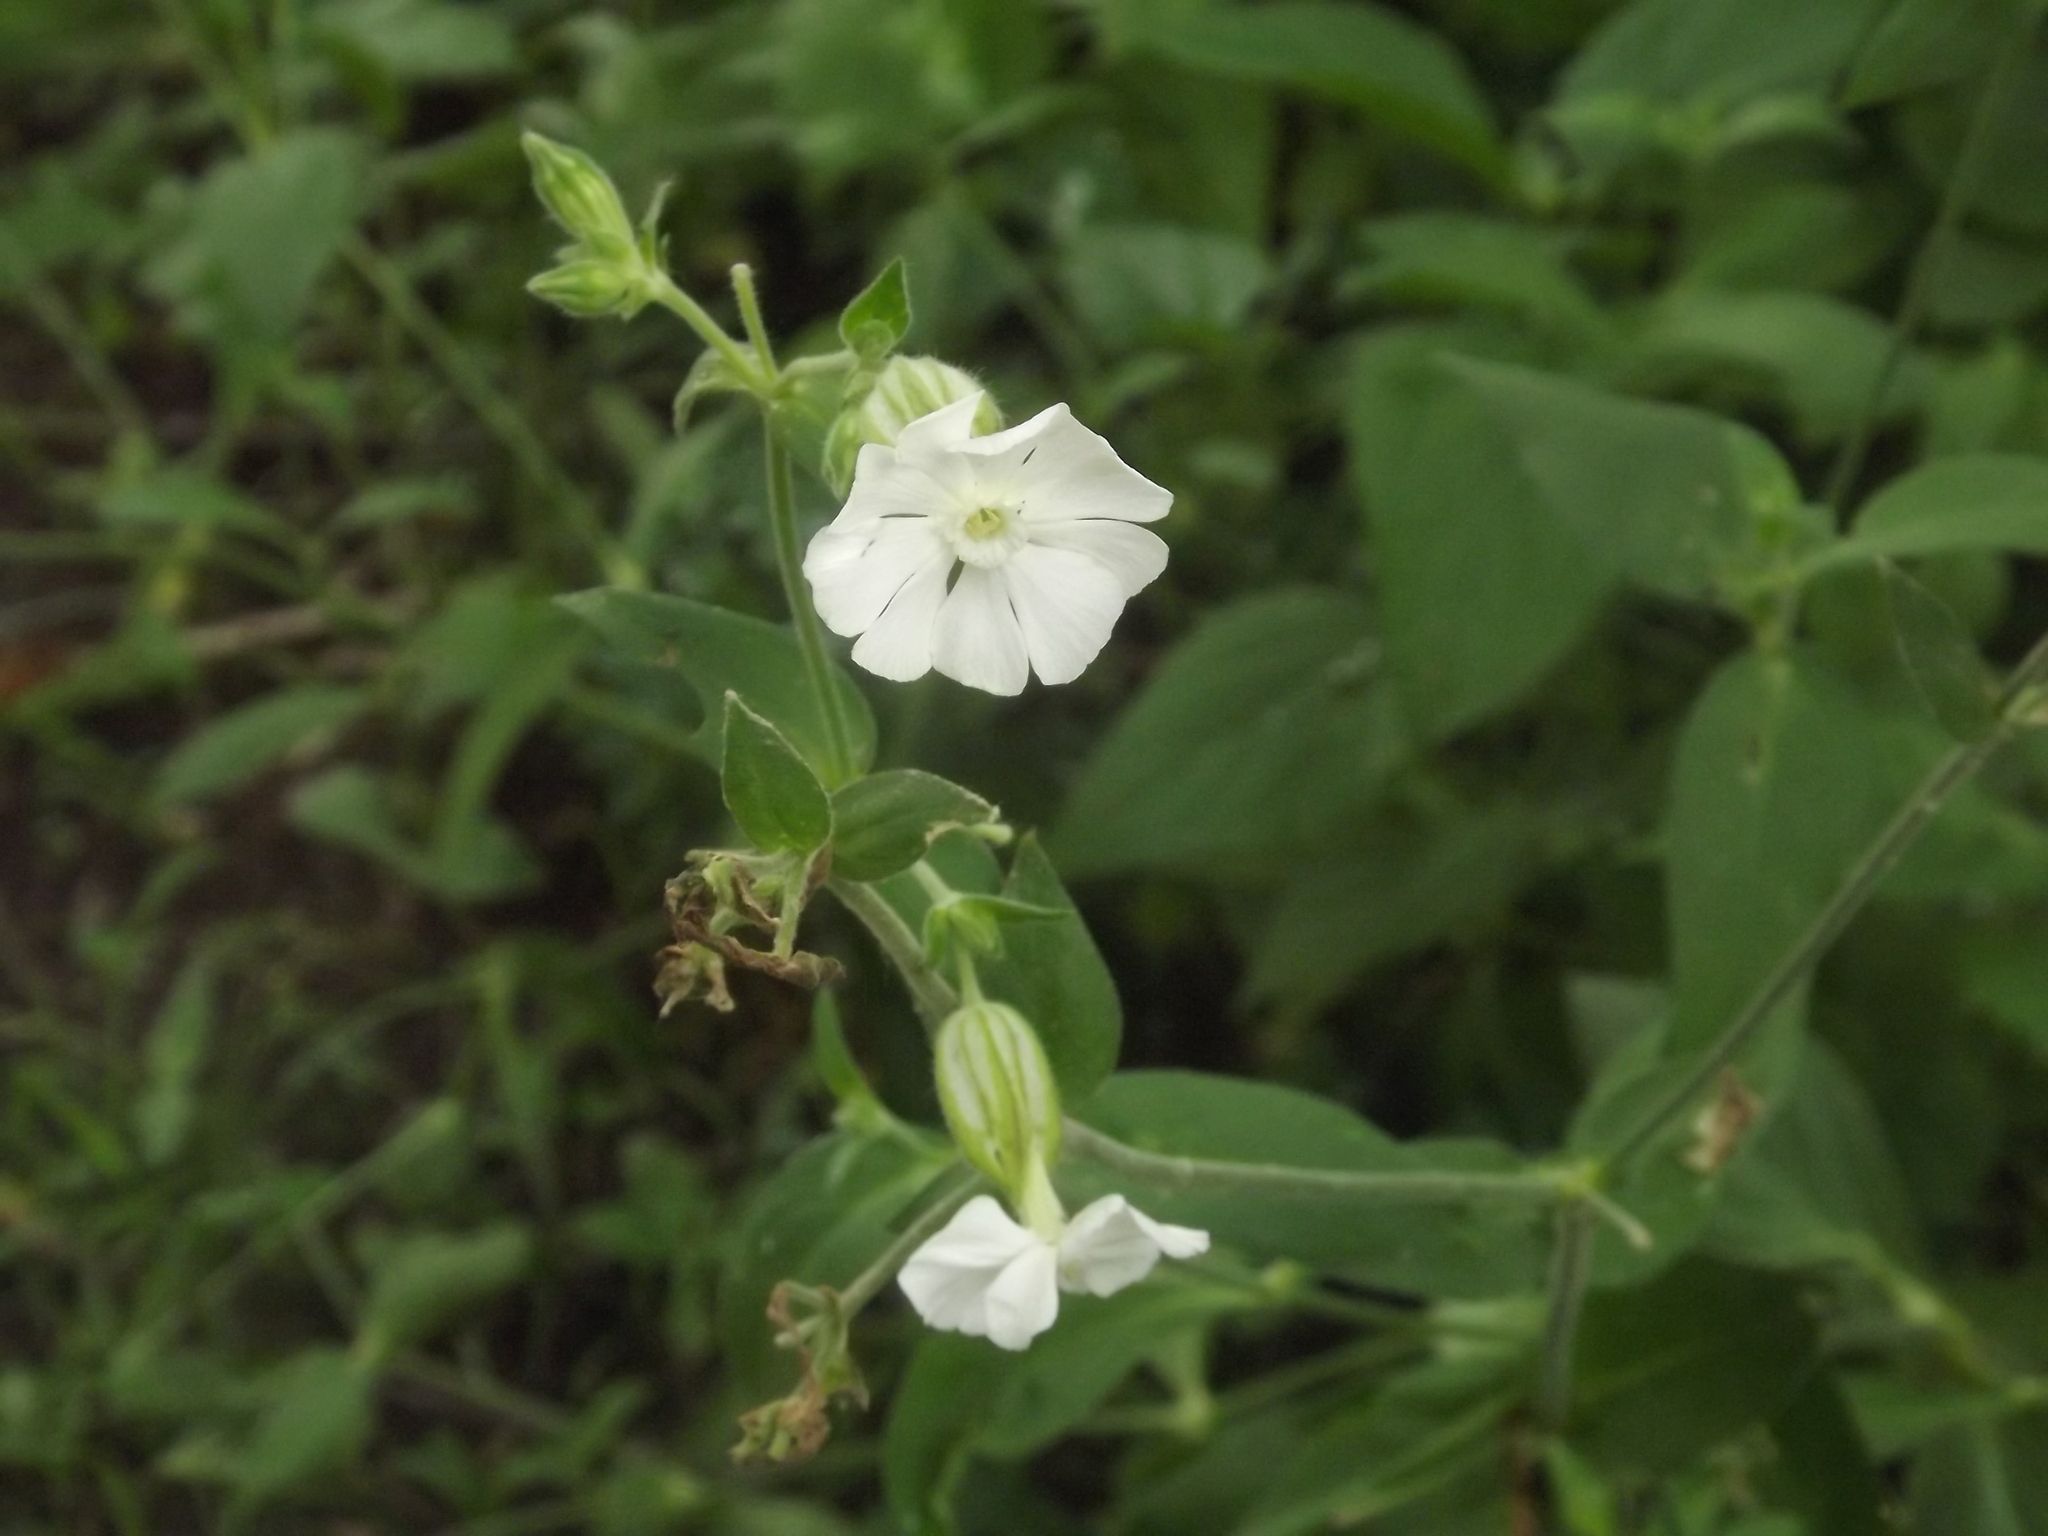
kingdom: Plantae
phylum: Tracheophyta
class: Magnoliopsida
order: Caryophyllales
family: Caryophyllaceae
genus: Silene
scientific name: Silene latifolia
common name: White campion
